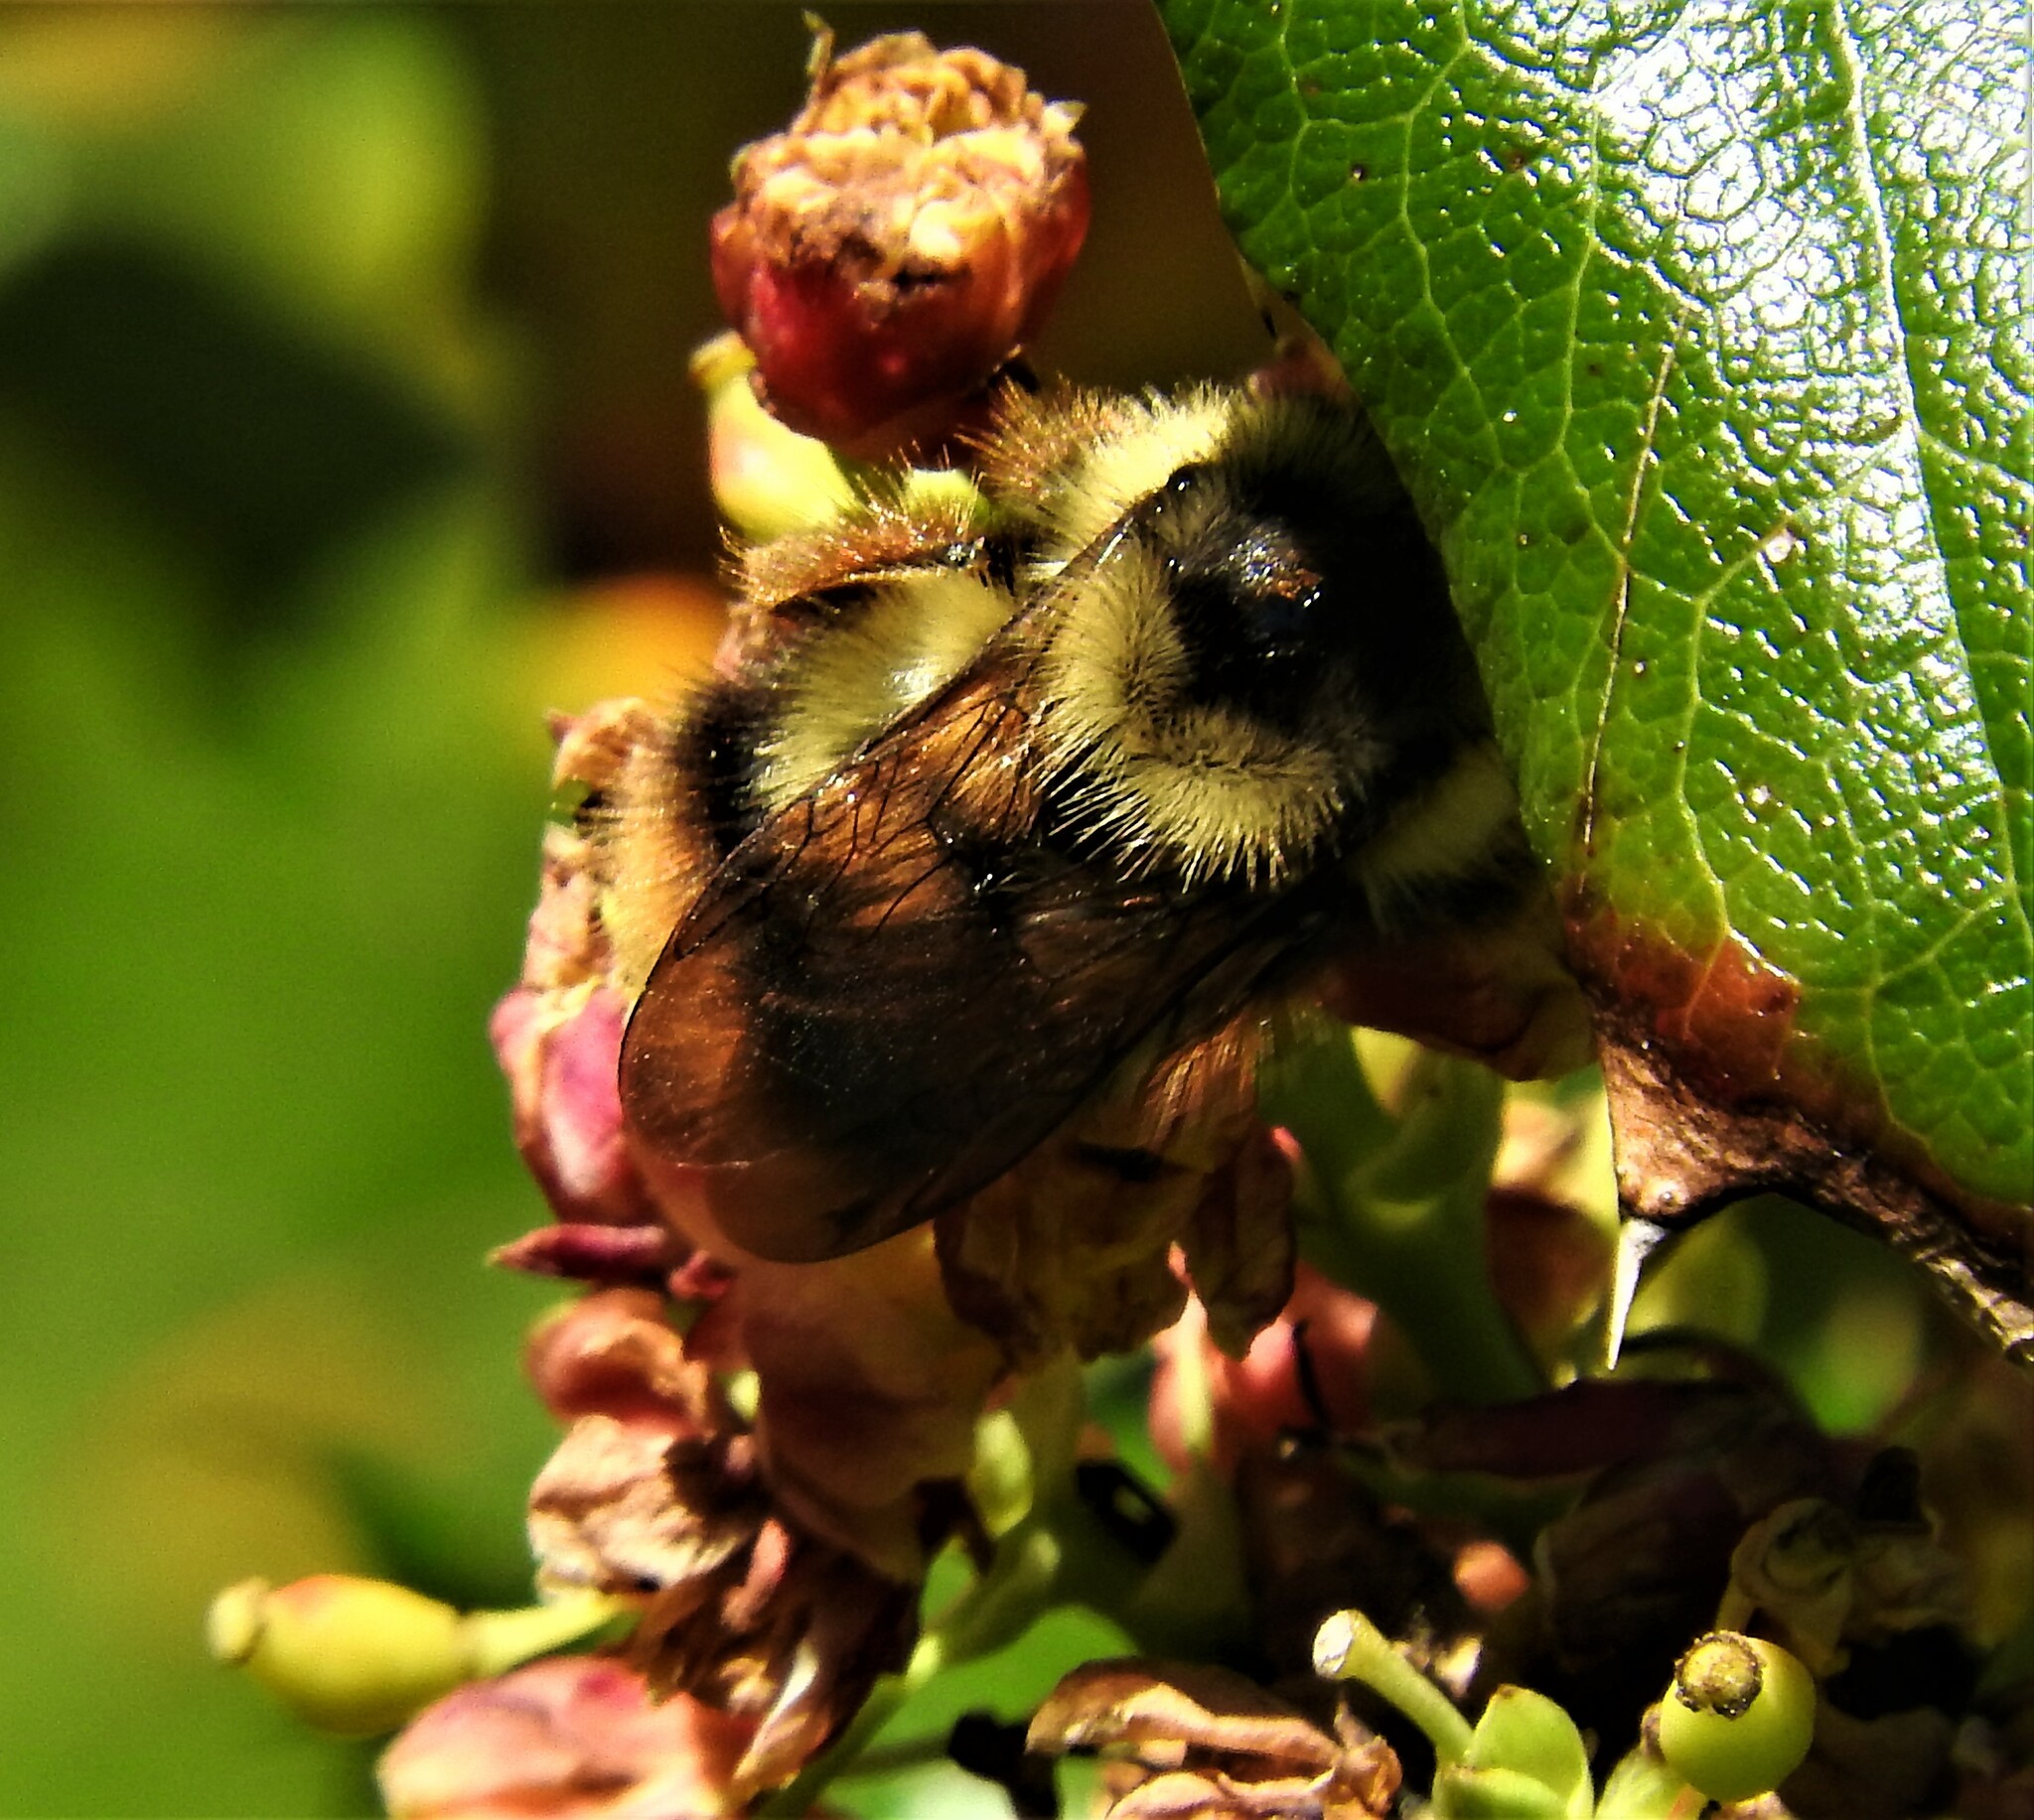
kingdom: Animalia
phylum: Arthropoda
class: Insecta
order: Hymenoptera
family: Apidae
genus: Bombus
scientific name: Bombus mixtus
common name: Fuzzy-horned bumble bee
